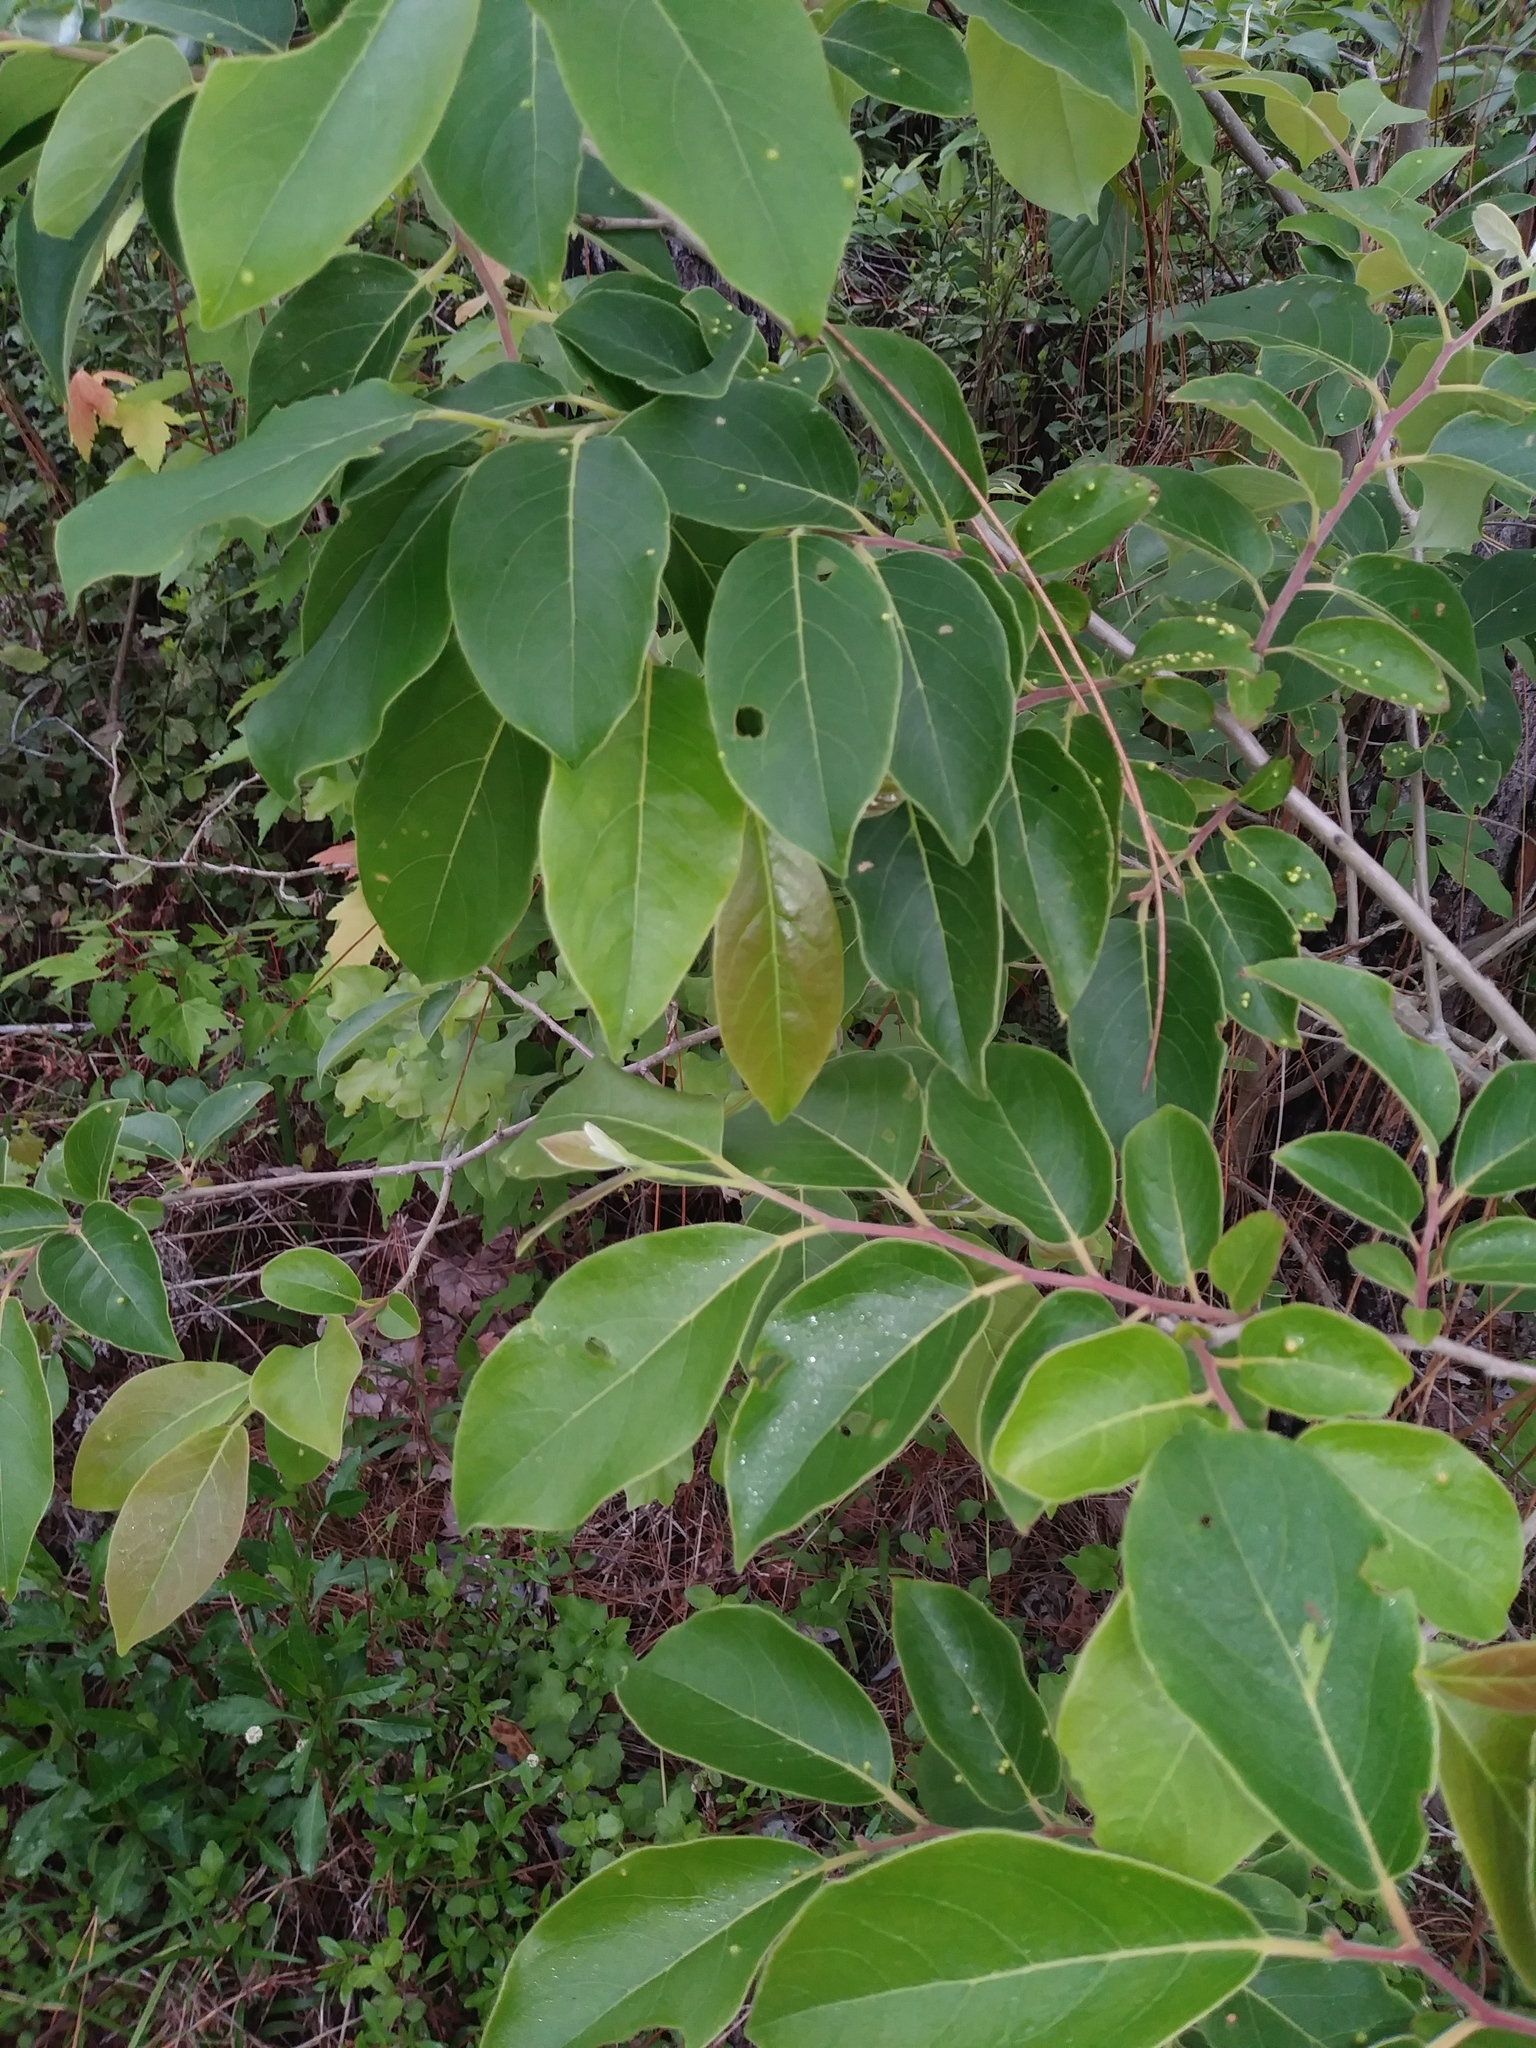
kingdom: Animalia
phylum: Arthropoda
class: Arachnida
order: Trombidiformes
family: Eriophyidae
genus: Aceria
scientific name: Aceria
